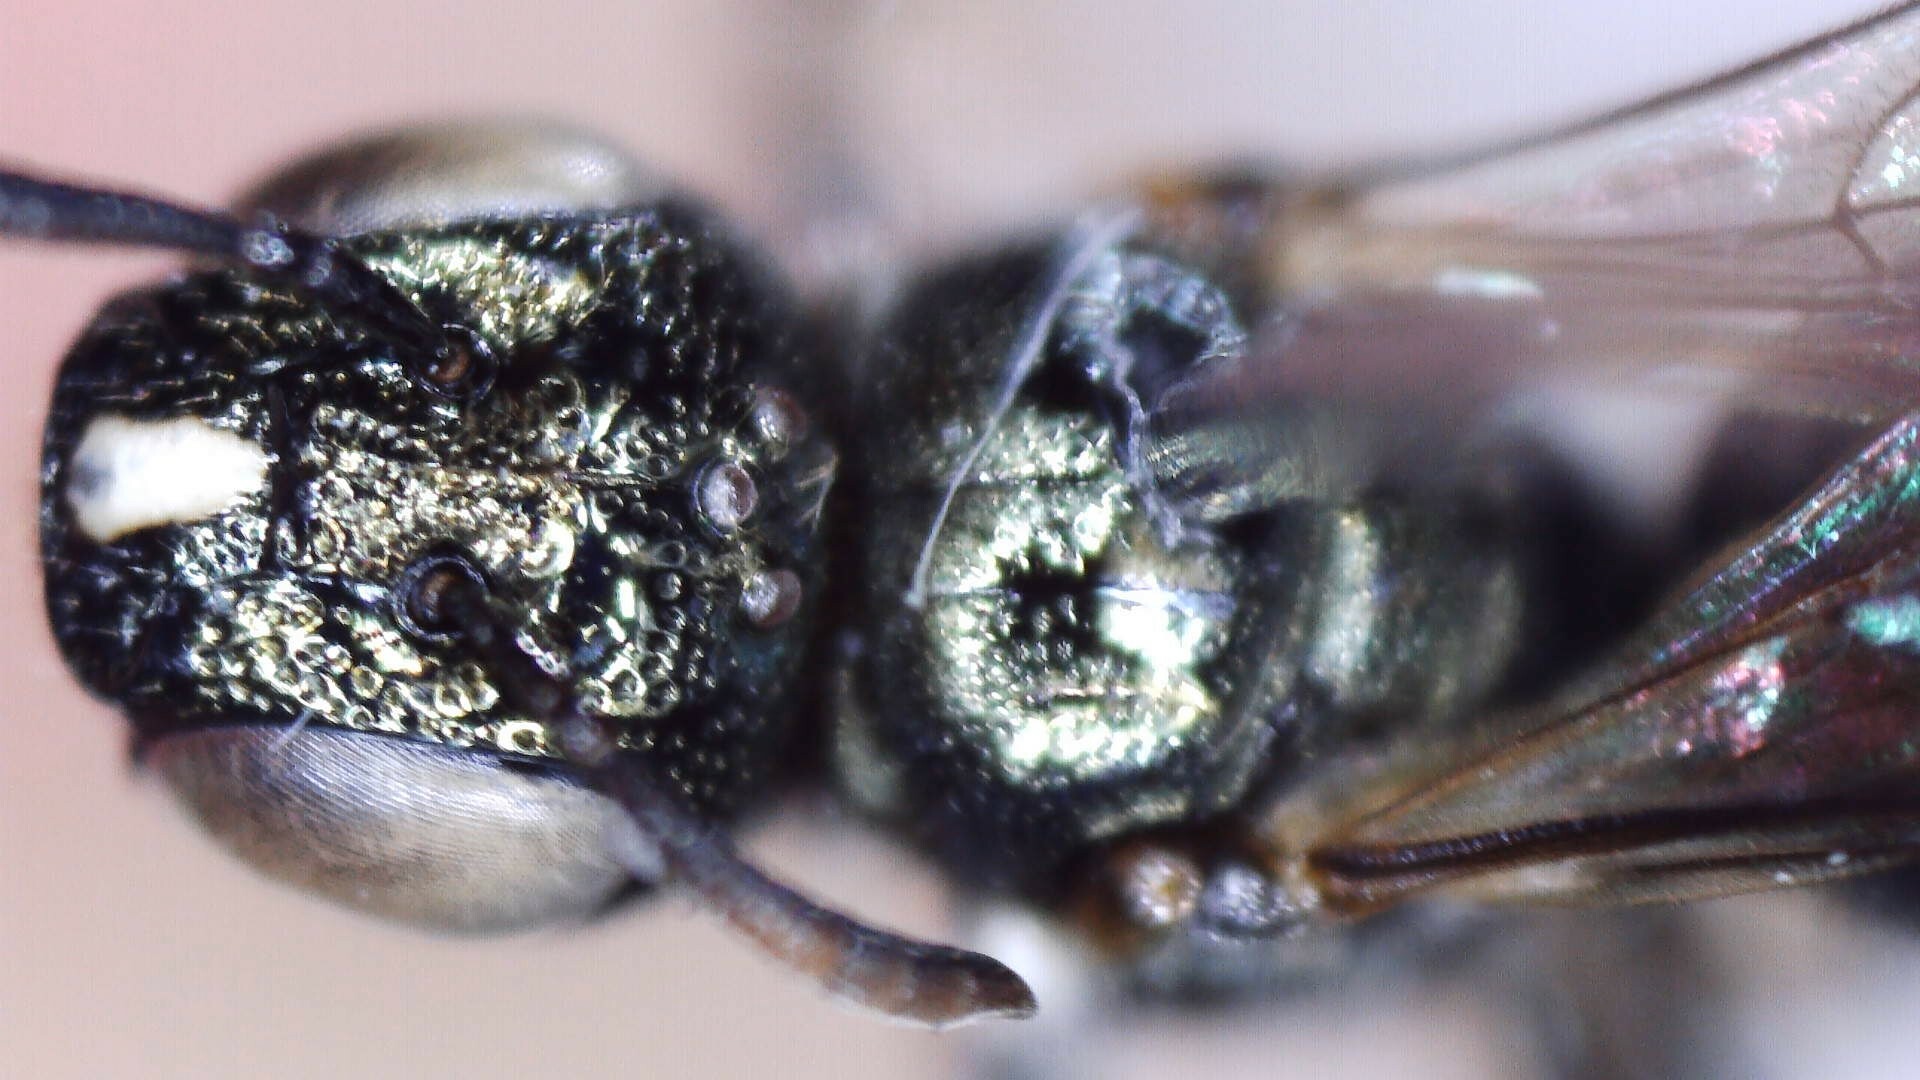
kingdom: Animalia
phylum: Arthropoda
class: Insecta
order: Hymenoptera
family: Apidae
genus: Zadontomerus
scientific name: Zadontomerus
